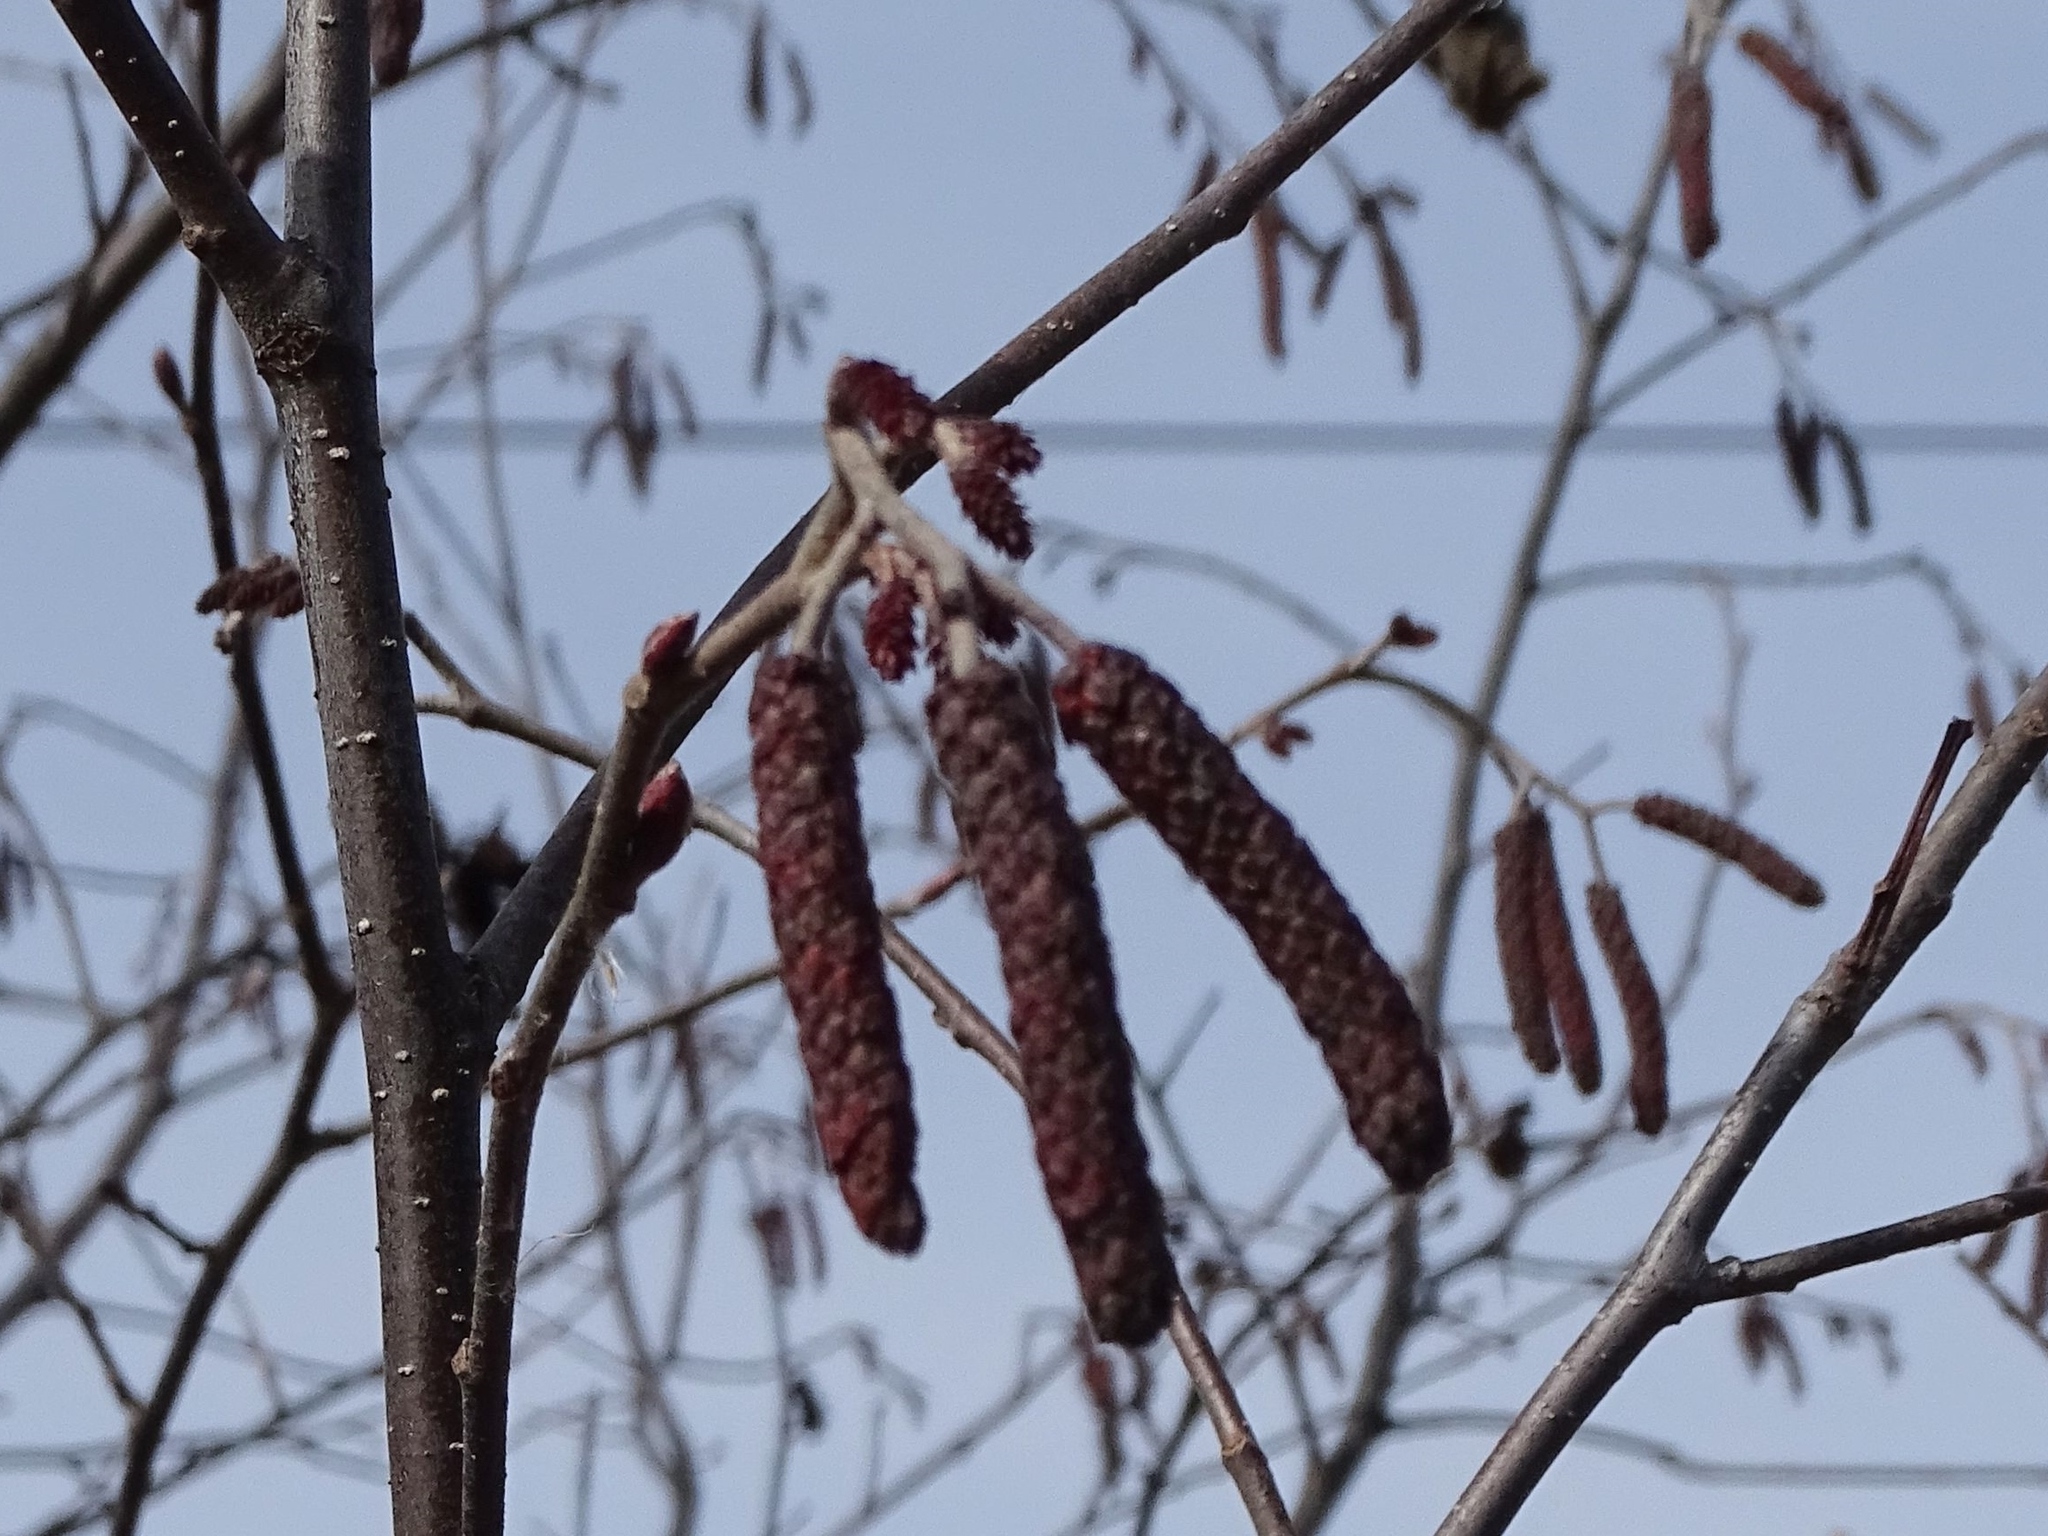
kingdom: Plantae
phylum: Tracheophyta
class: Magnoliopsida
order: Fagales
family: Betulaceae
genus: Alnus
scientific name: Alnus incana
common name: Grey alder
